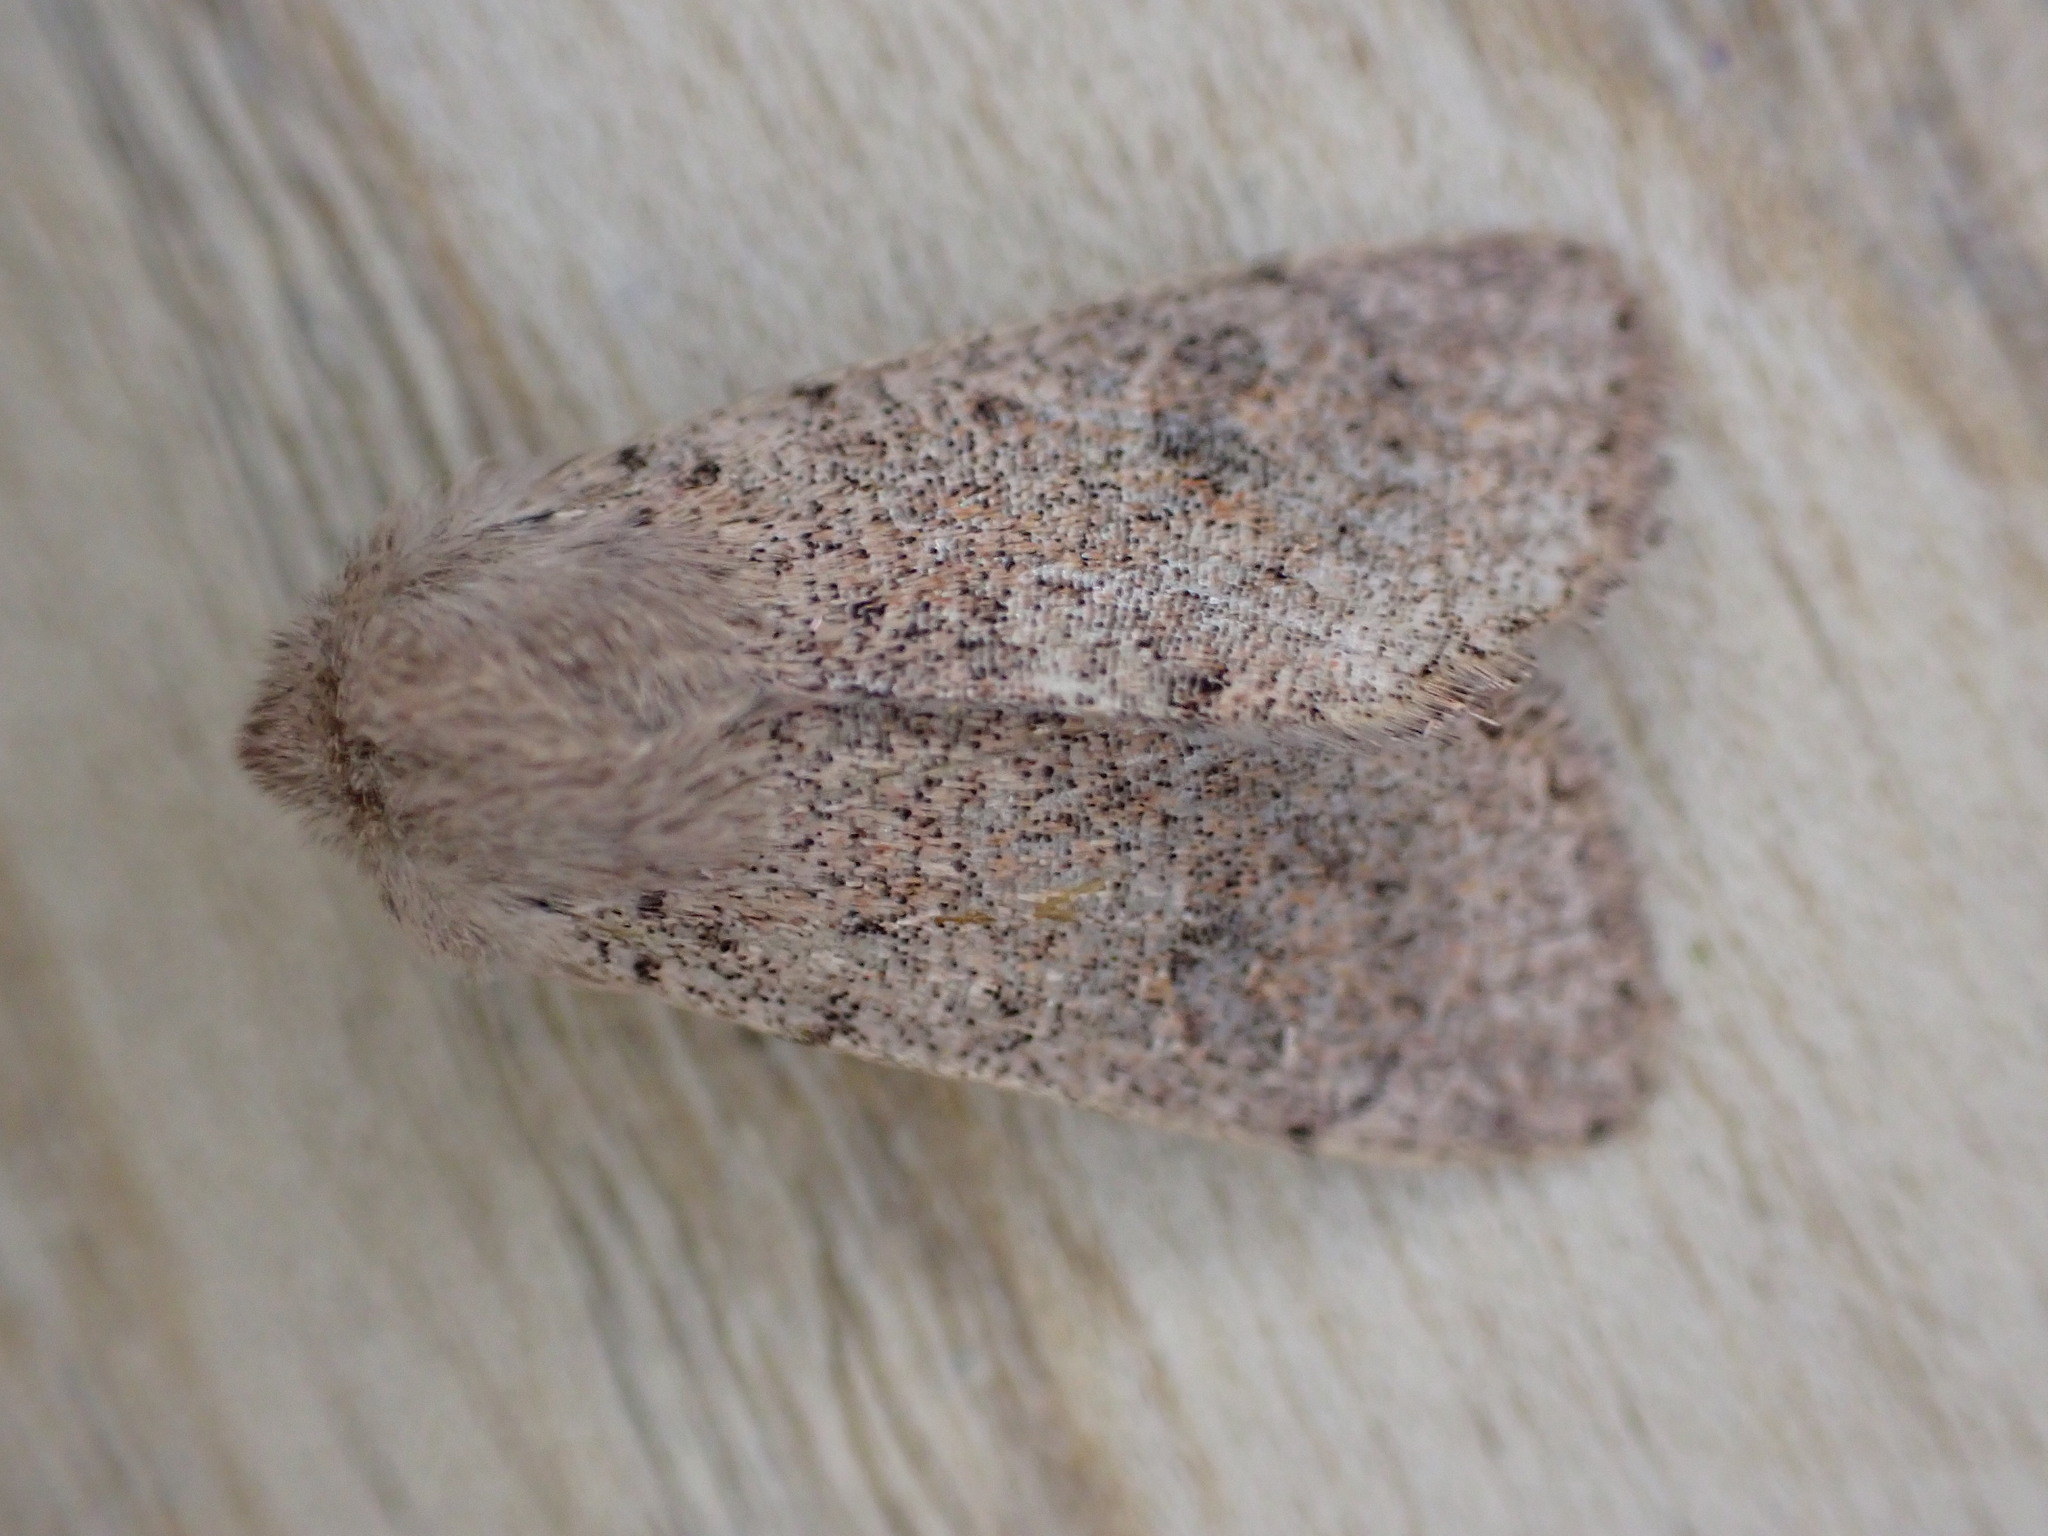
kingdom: Animalia
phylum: Arthropoda
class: Insecta
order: Lepidoptera
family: Noctuidae
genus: Orthosia
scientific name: Orthosia cruda
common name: Small quaker
